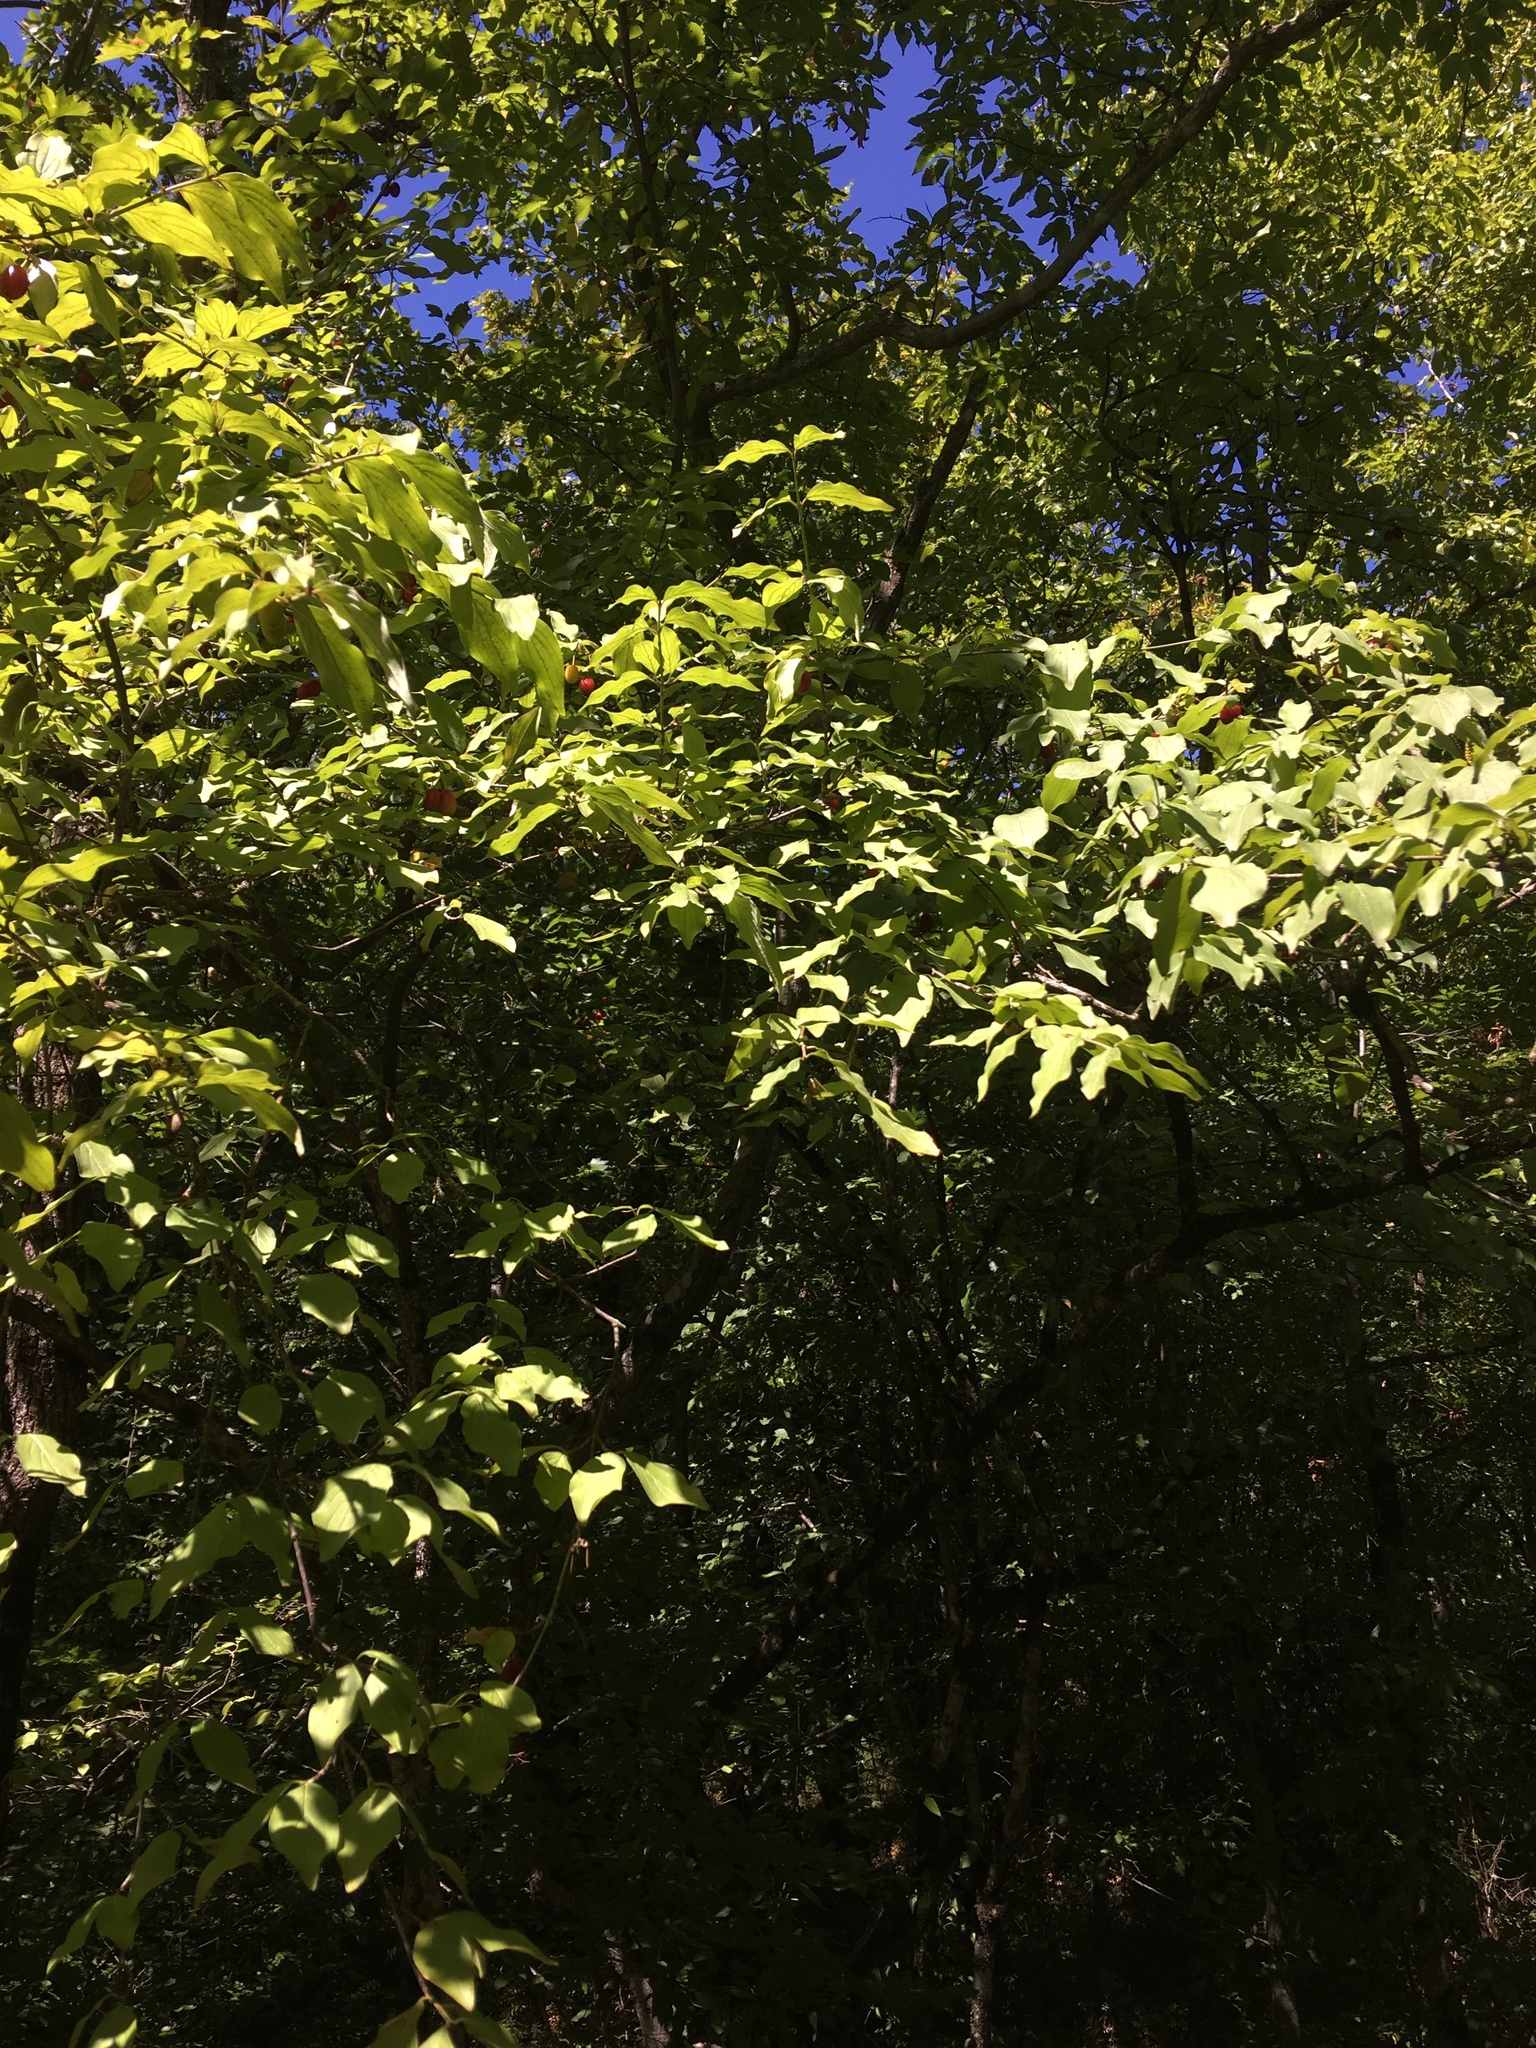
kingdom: Plantae
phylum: Tracheophyta
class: Magnoliopsida
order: Cornales
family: Cornaceae
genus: Cornus
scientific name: Cornus mas
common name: Cornelian-cherry
